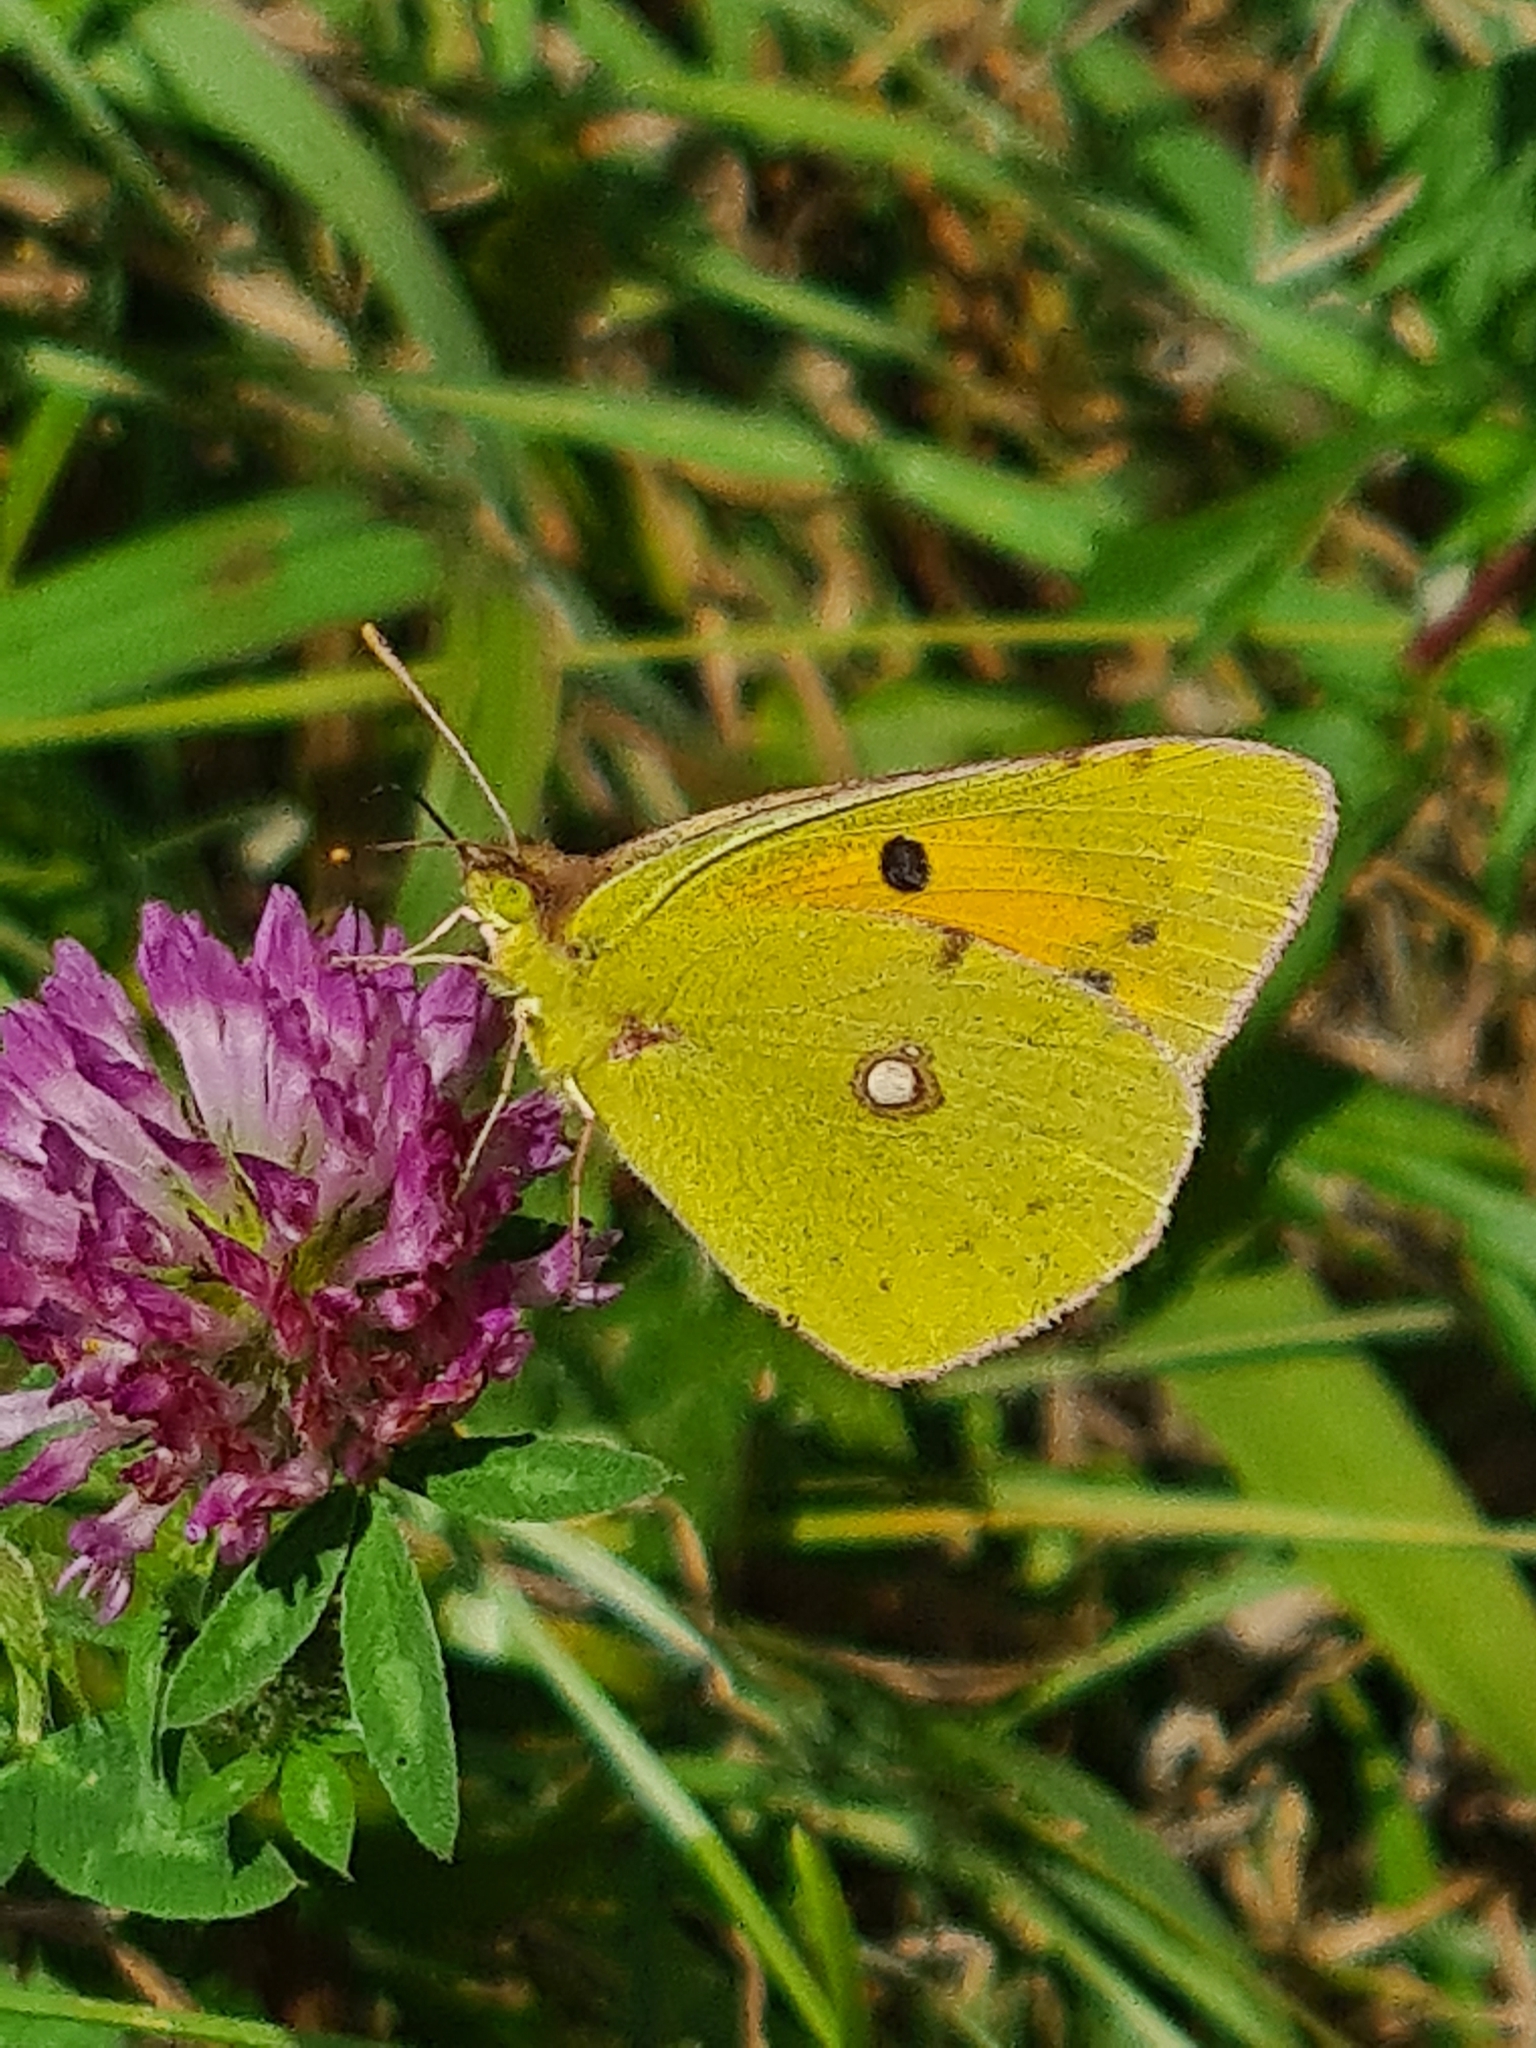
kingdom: Animalia
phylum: Arthropoda
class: Insecta
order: Lepidoptera
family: Pieridae
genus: Colias
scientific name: Colias croceus
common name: Clouded yellow
